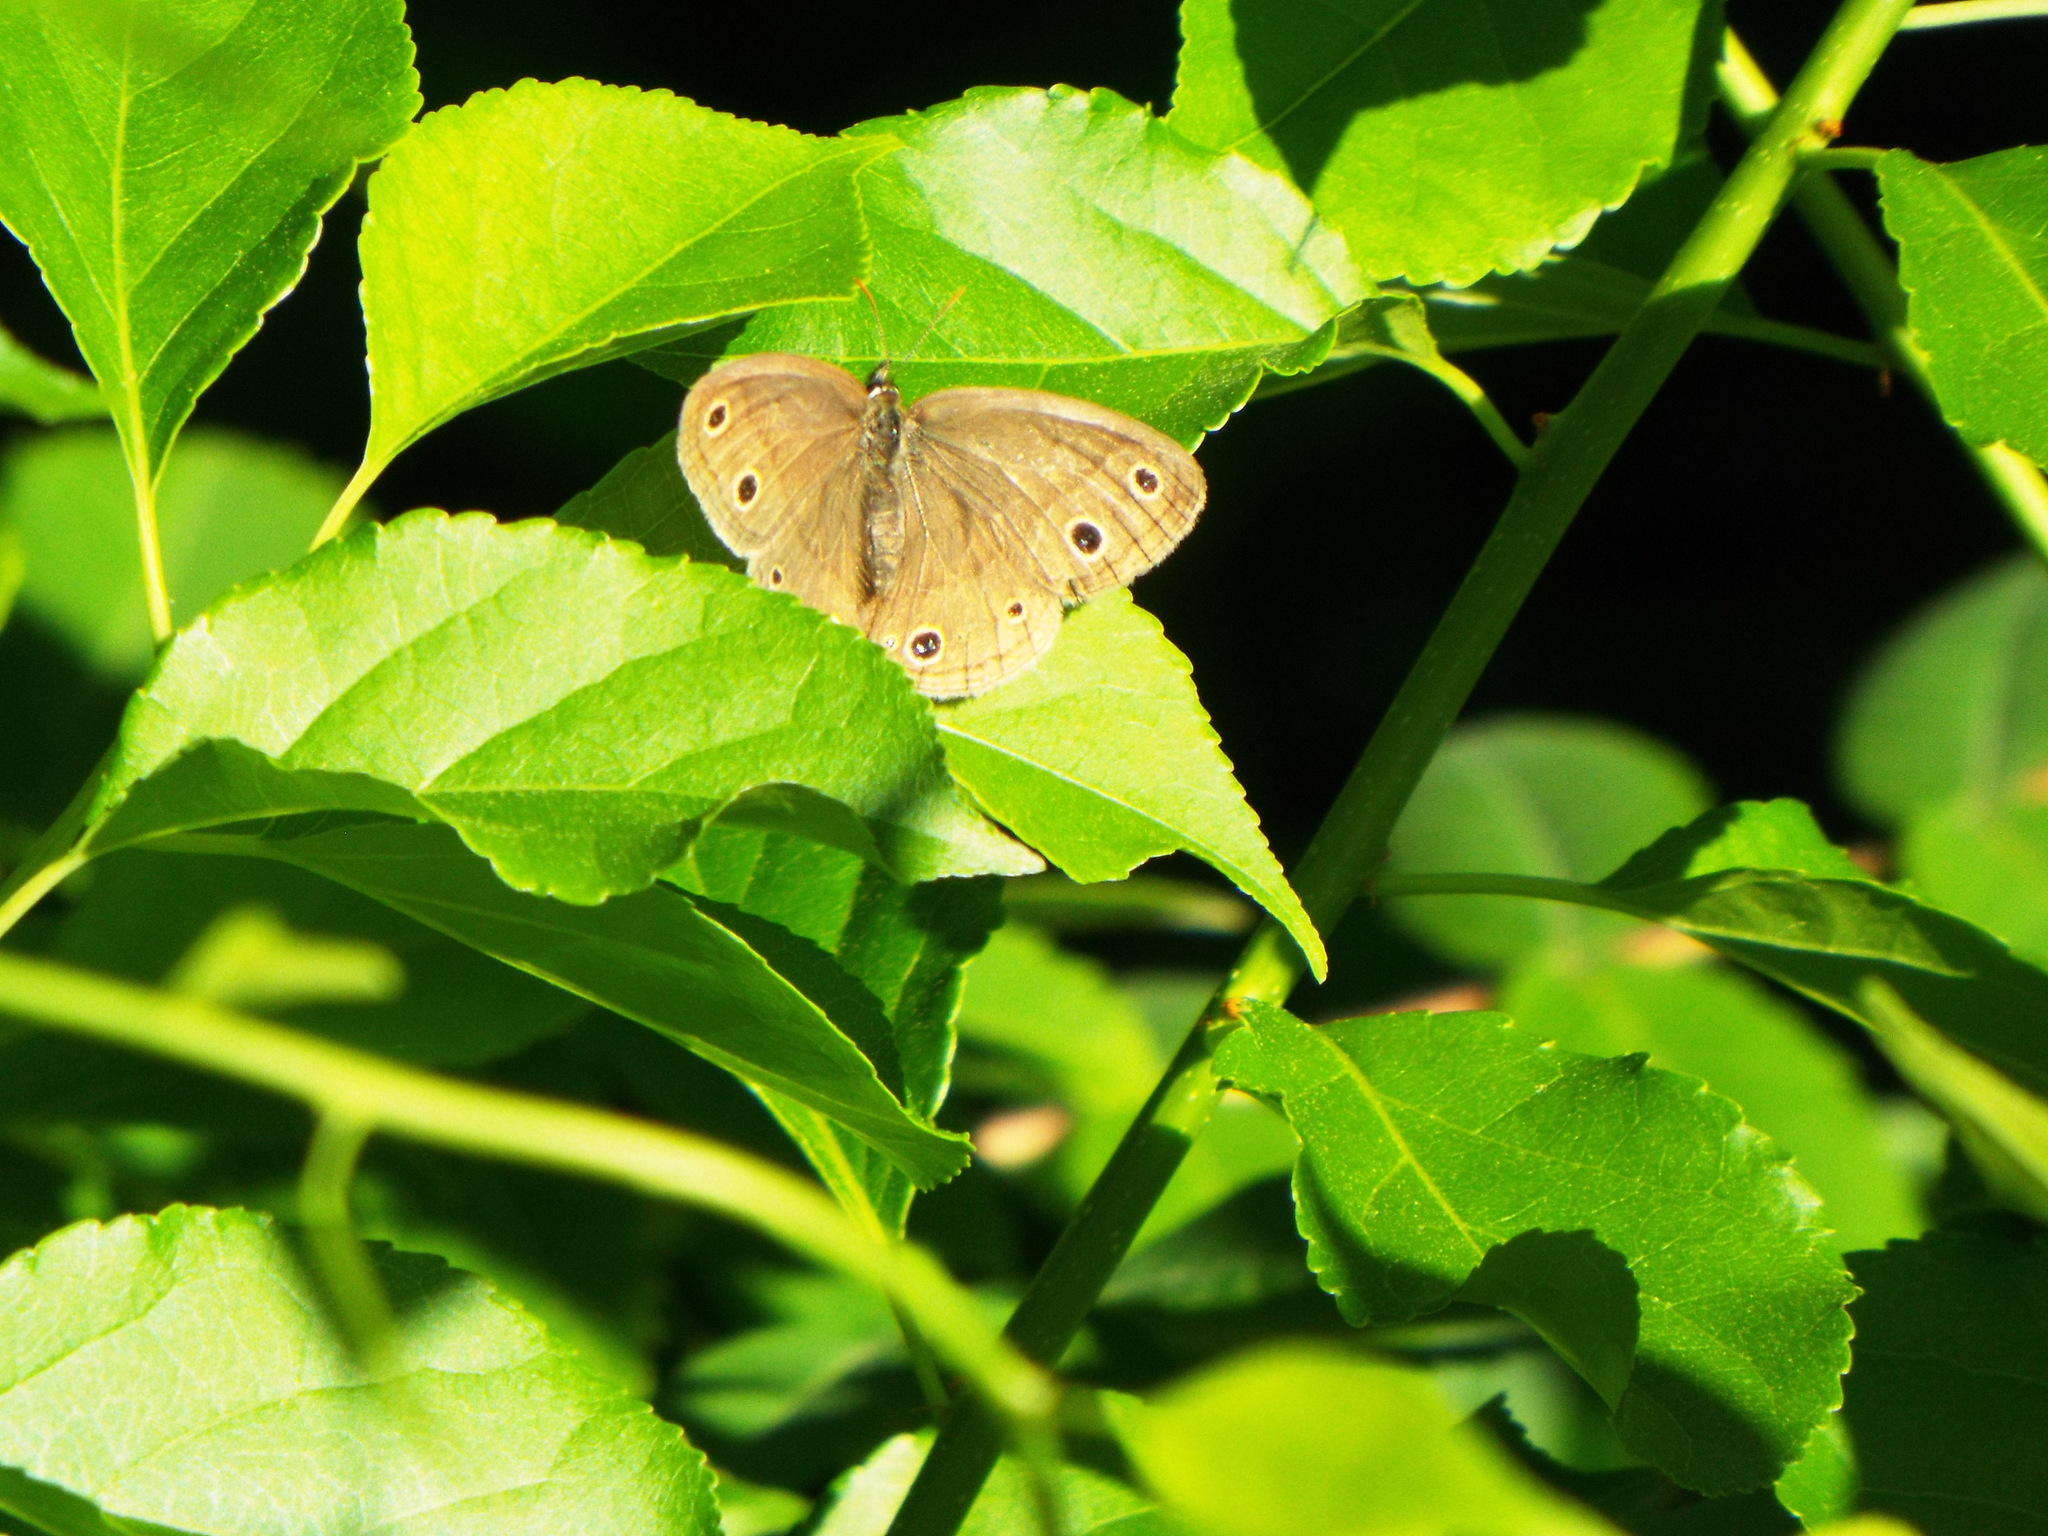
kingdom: Animalia
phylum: Arthropoda
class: Insecta
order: Lepidoptera
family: Nymphalidae
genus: Euptychia
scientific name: Euptychia cymela
